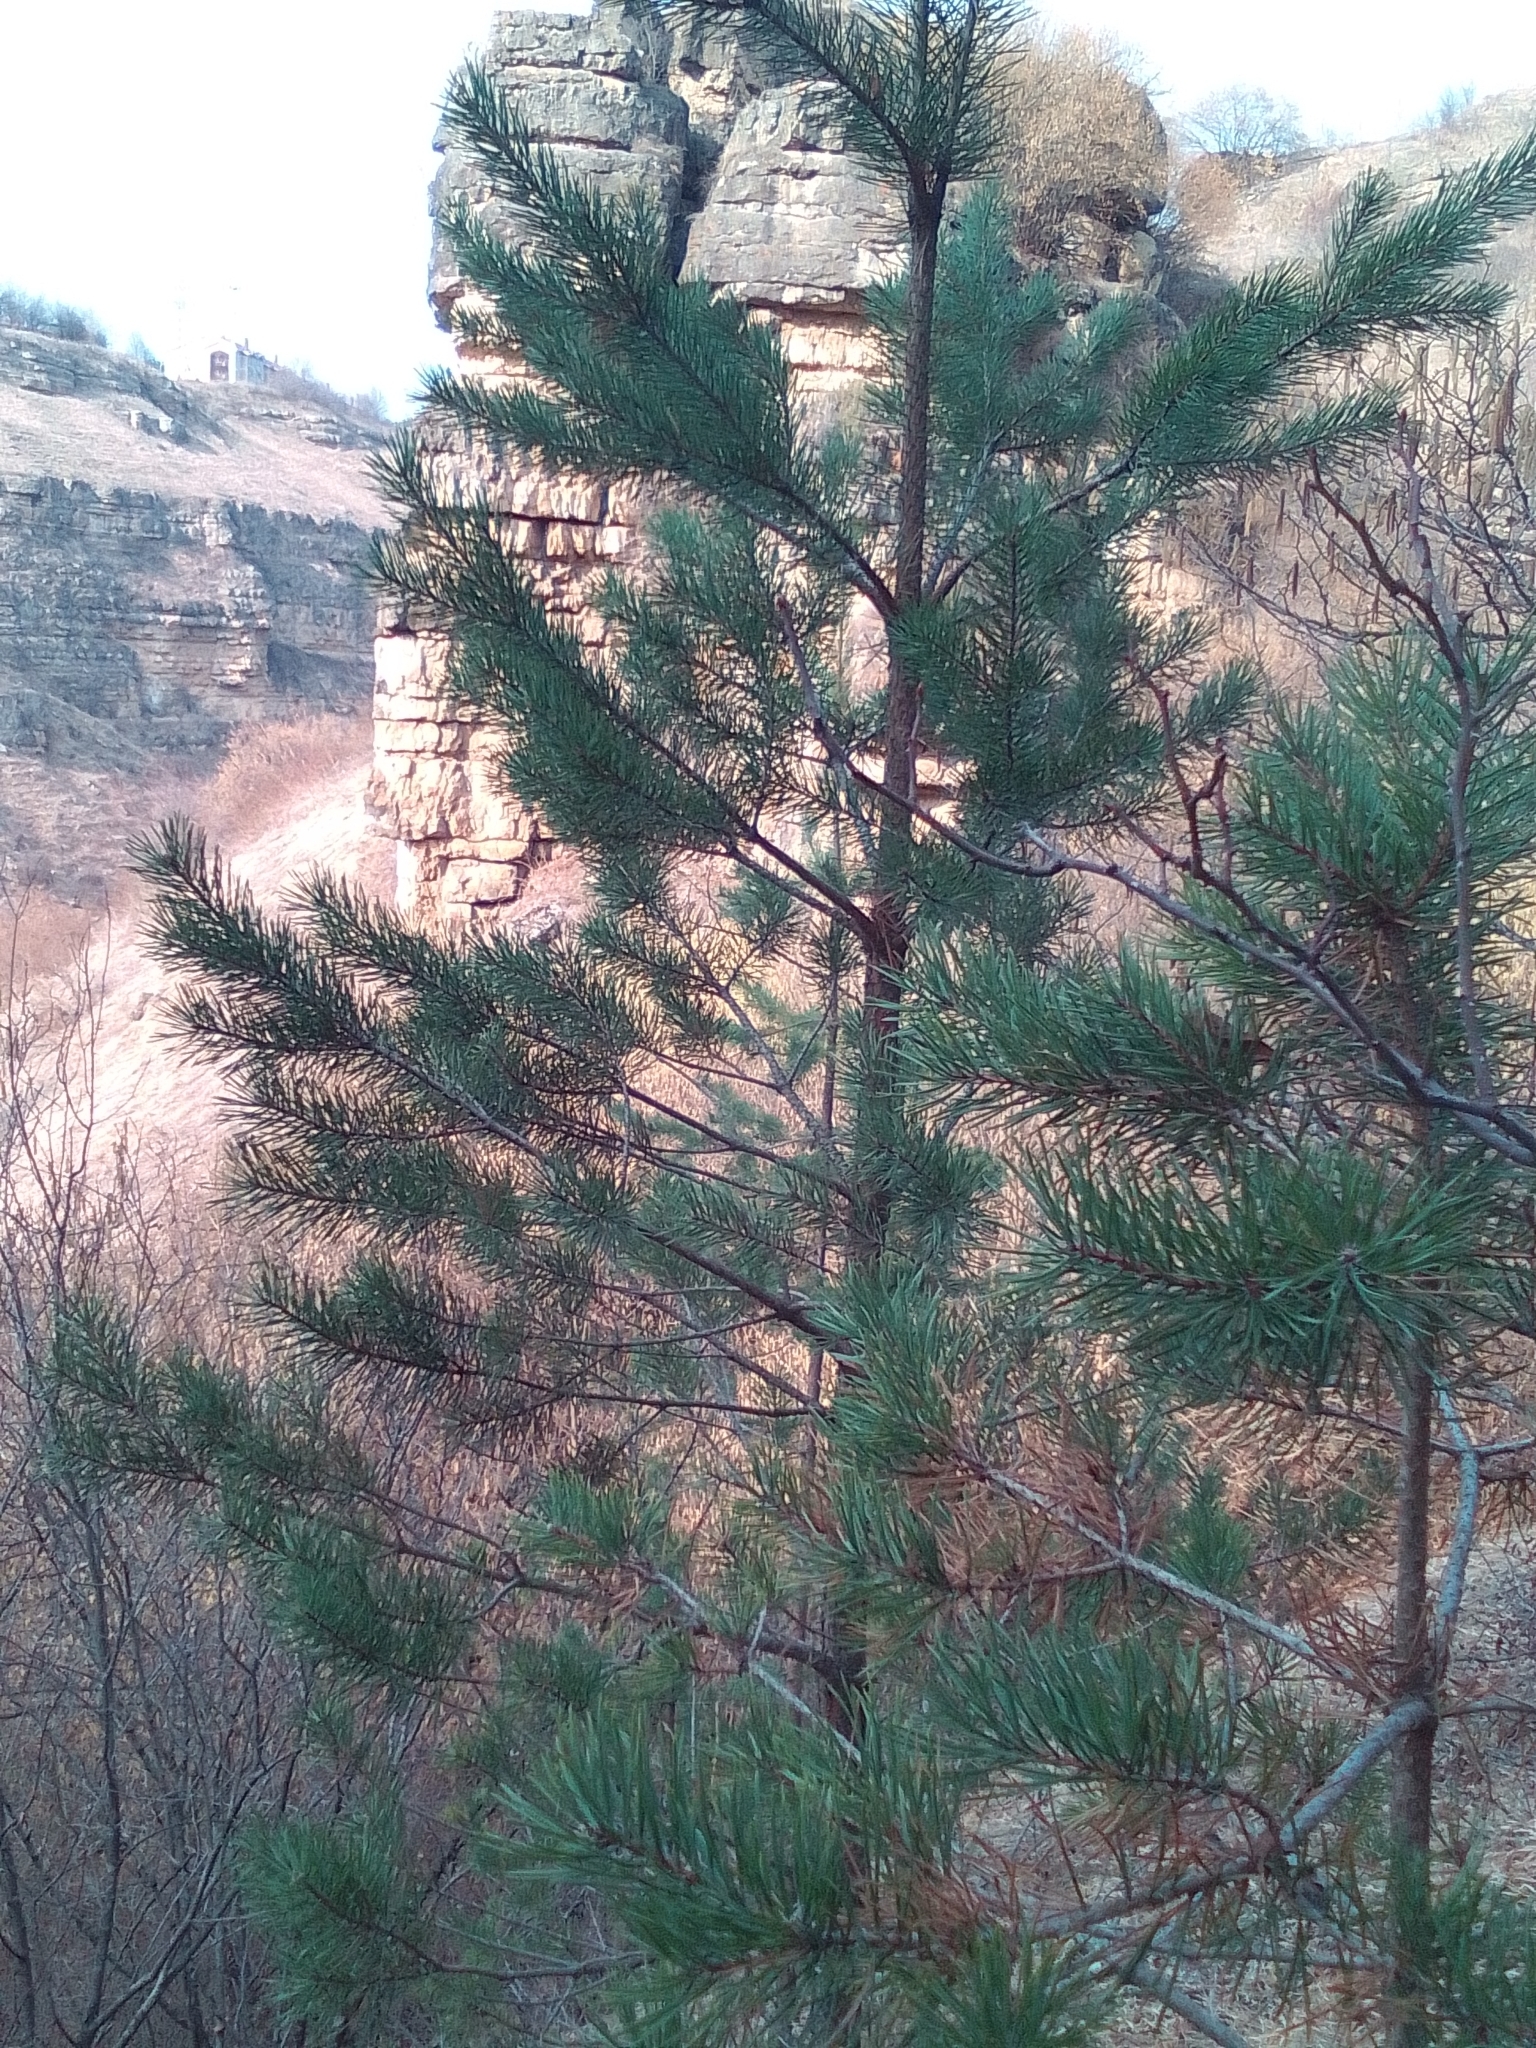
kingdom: Plantae
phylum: Tracheophyta
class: Pinopsida
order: Pinales
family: Pinaceae
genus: Pinus
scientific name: Pinus sylvestris
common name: Scots pine
